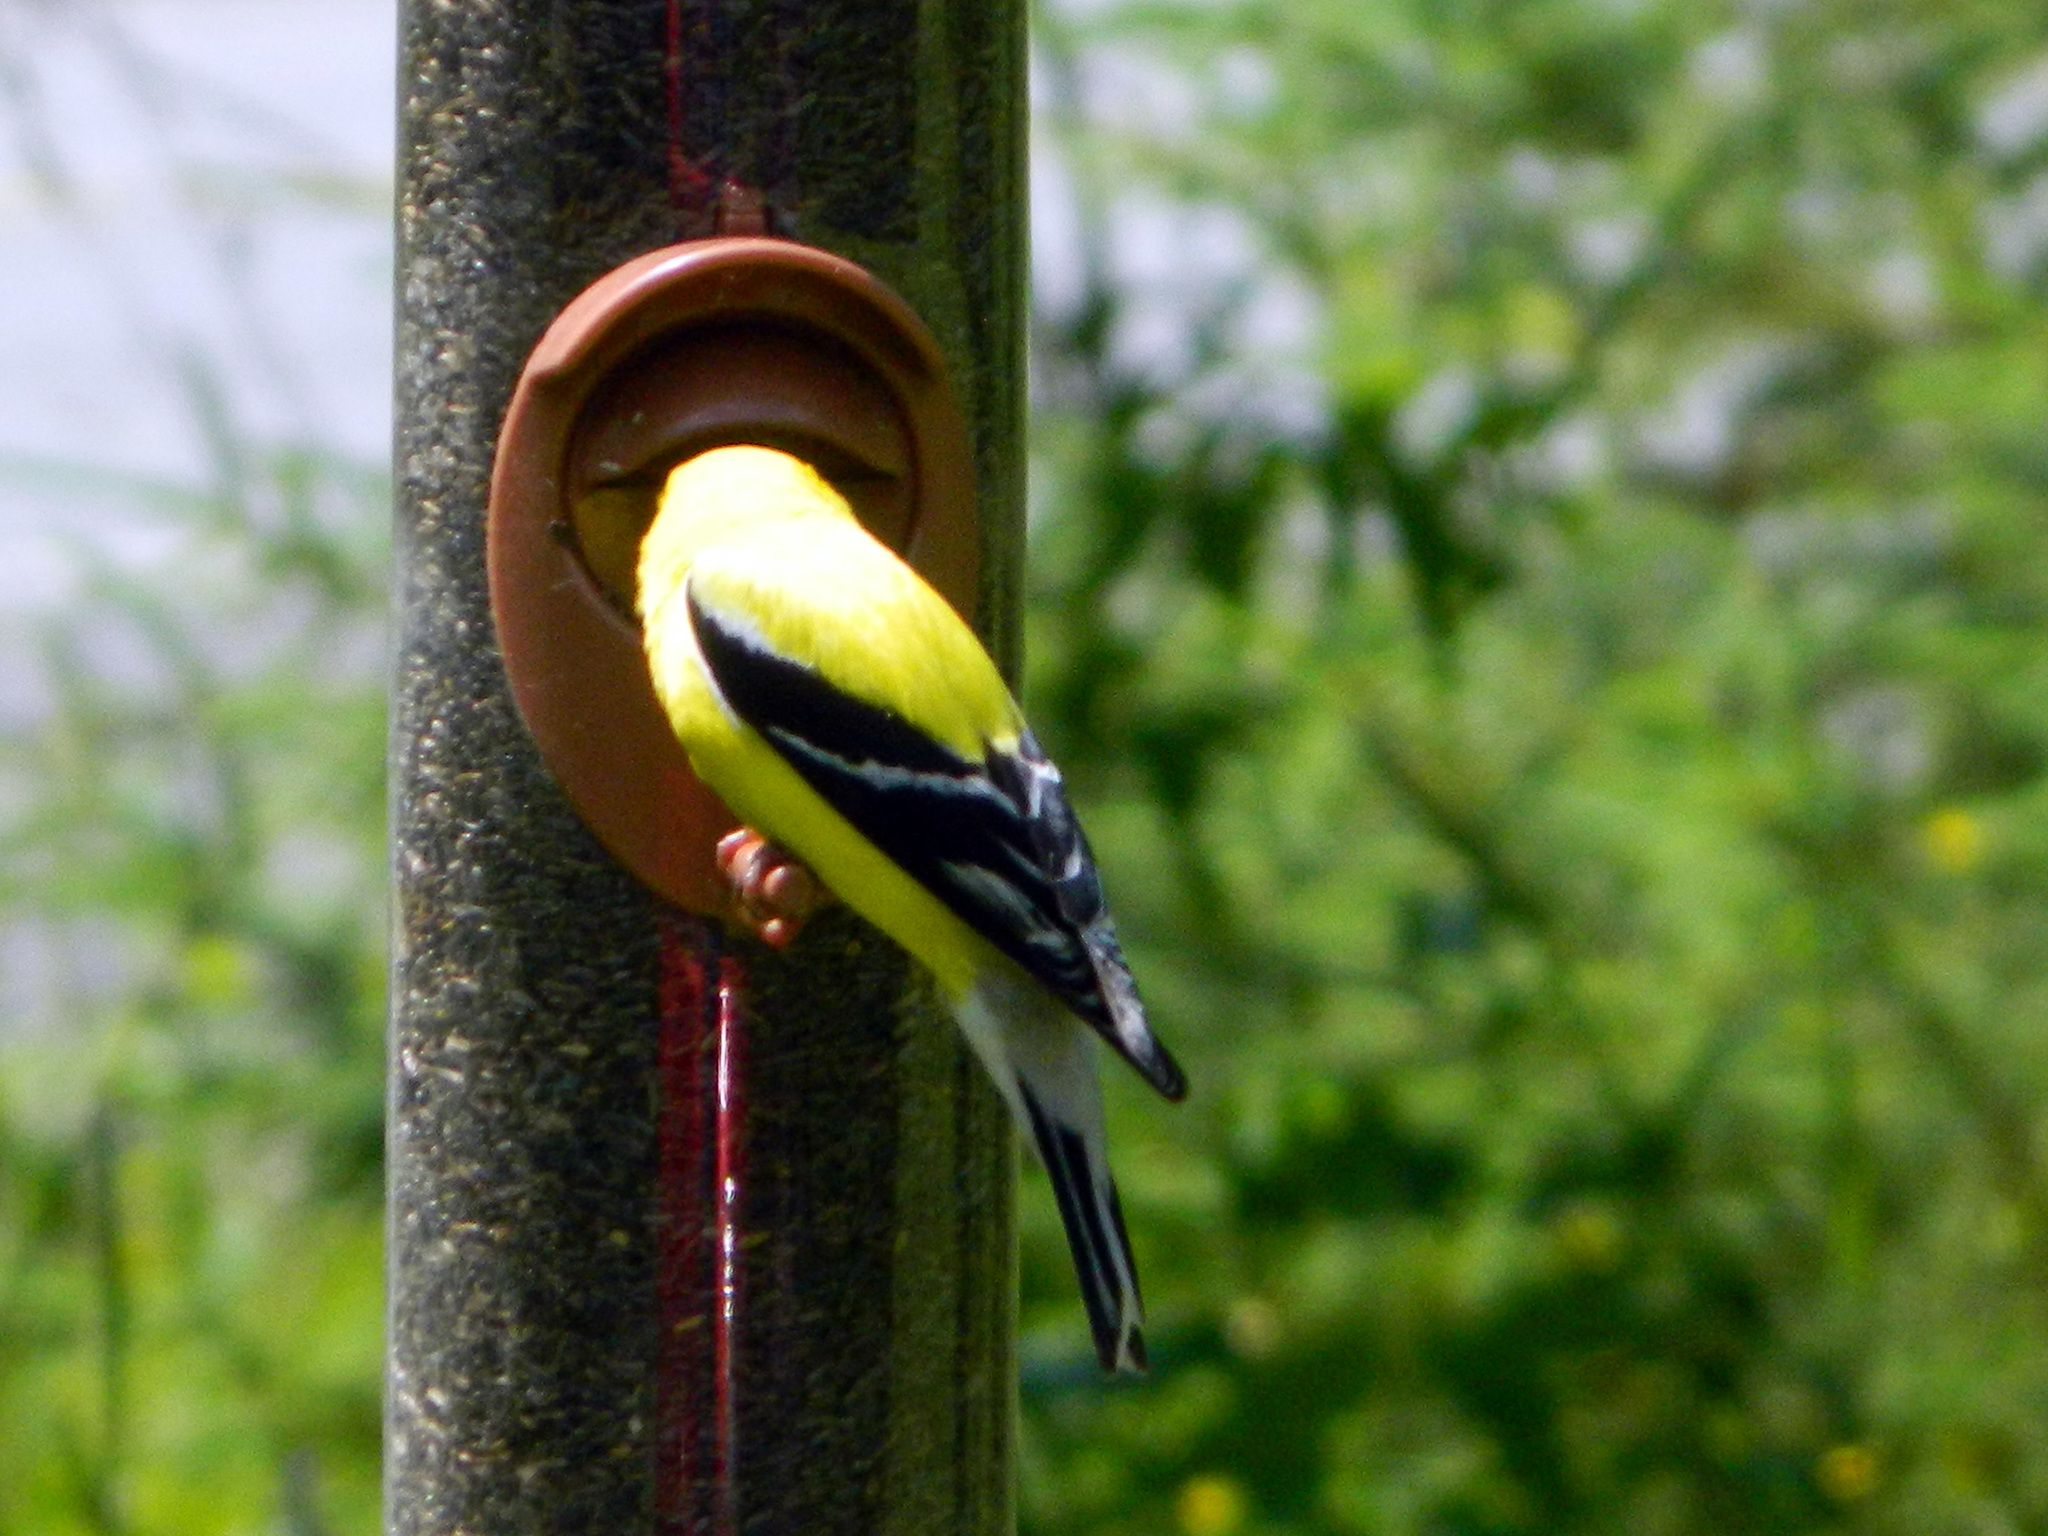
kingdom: Animalia
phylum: Chordata
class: Aves
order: Passeriformes
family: Fringillidae
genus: Spinus
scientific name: Spinus tristis
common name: American goldfinch
